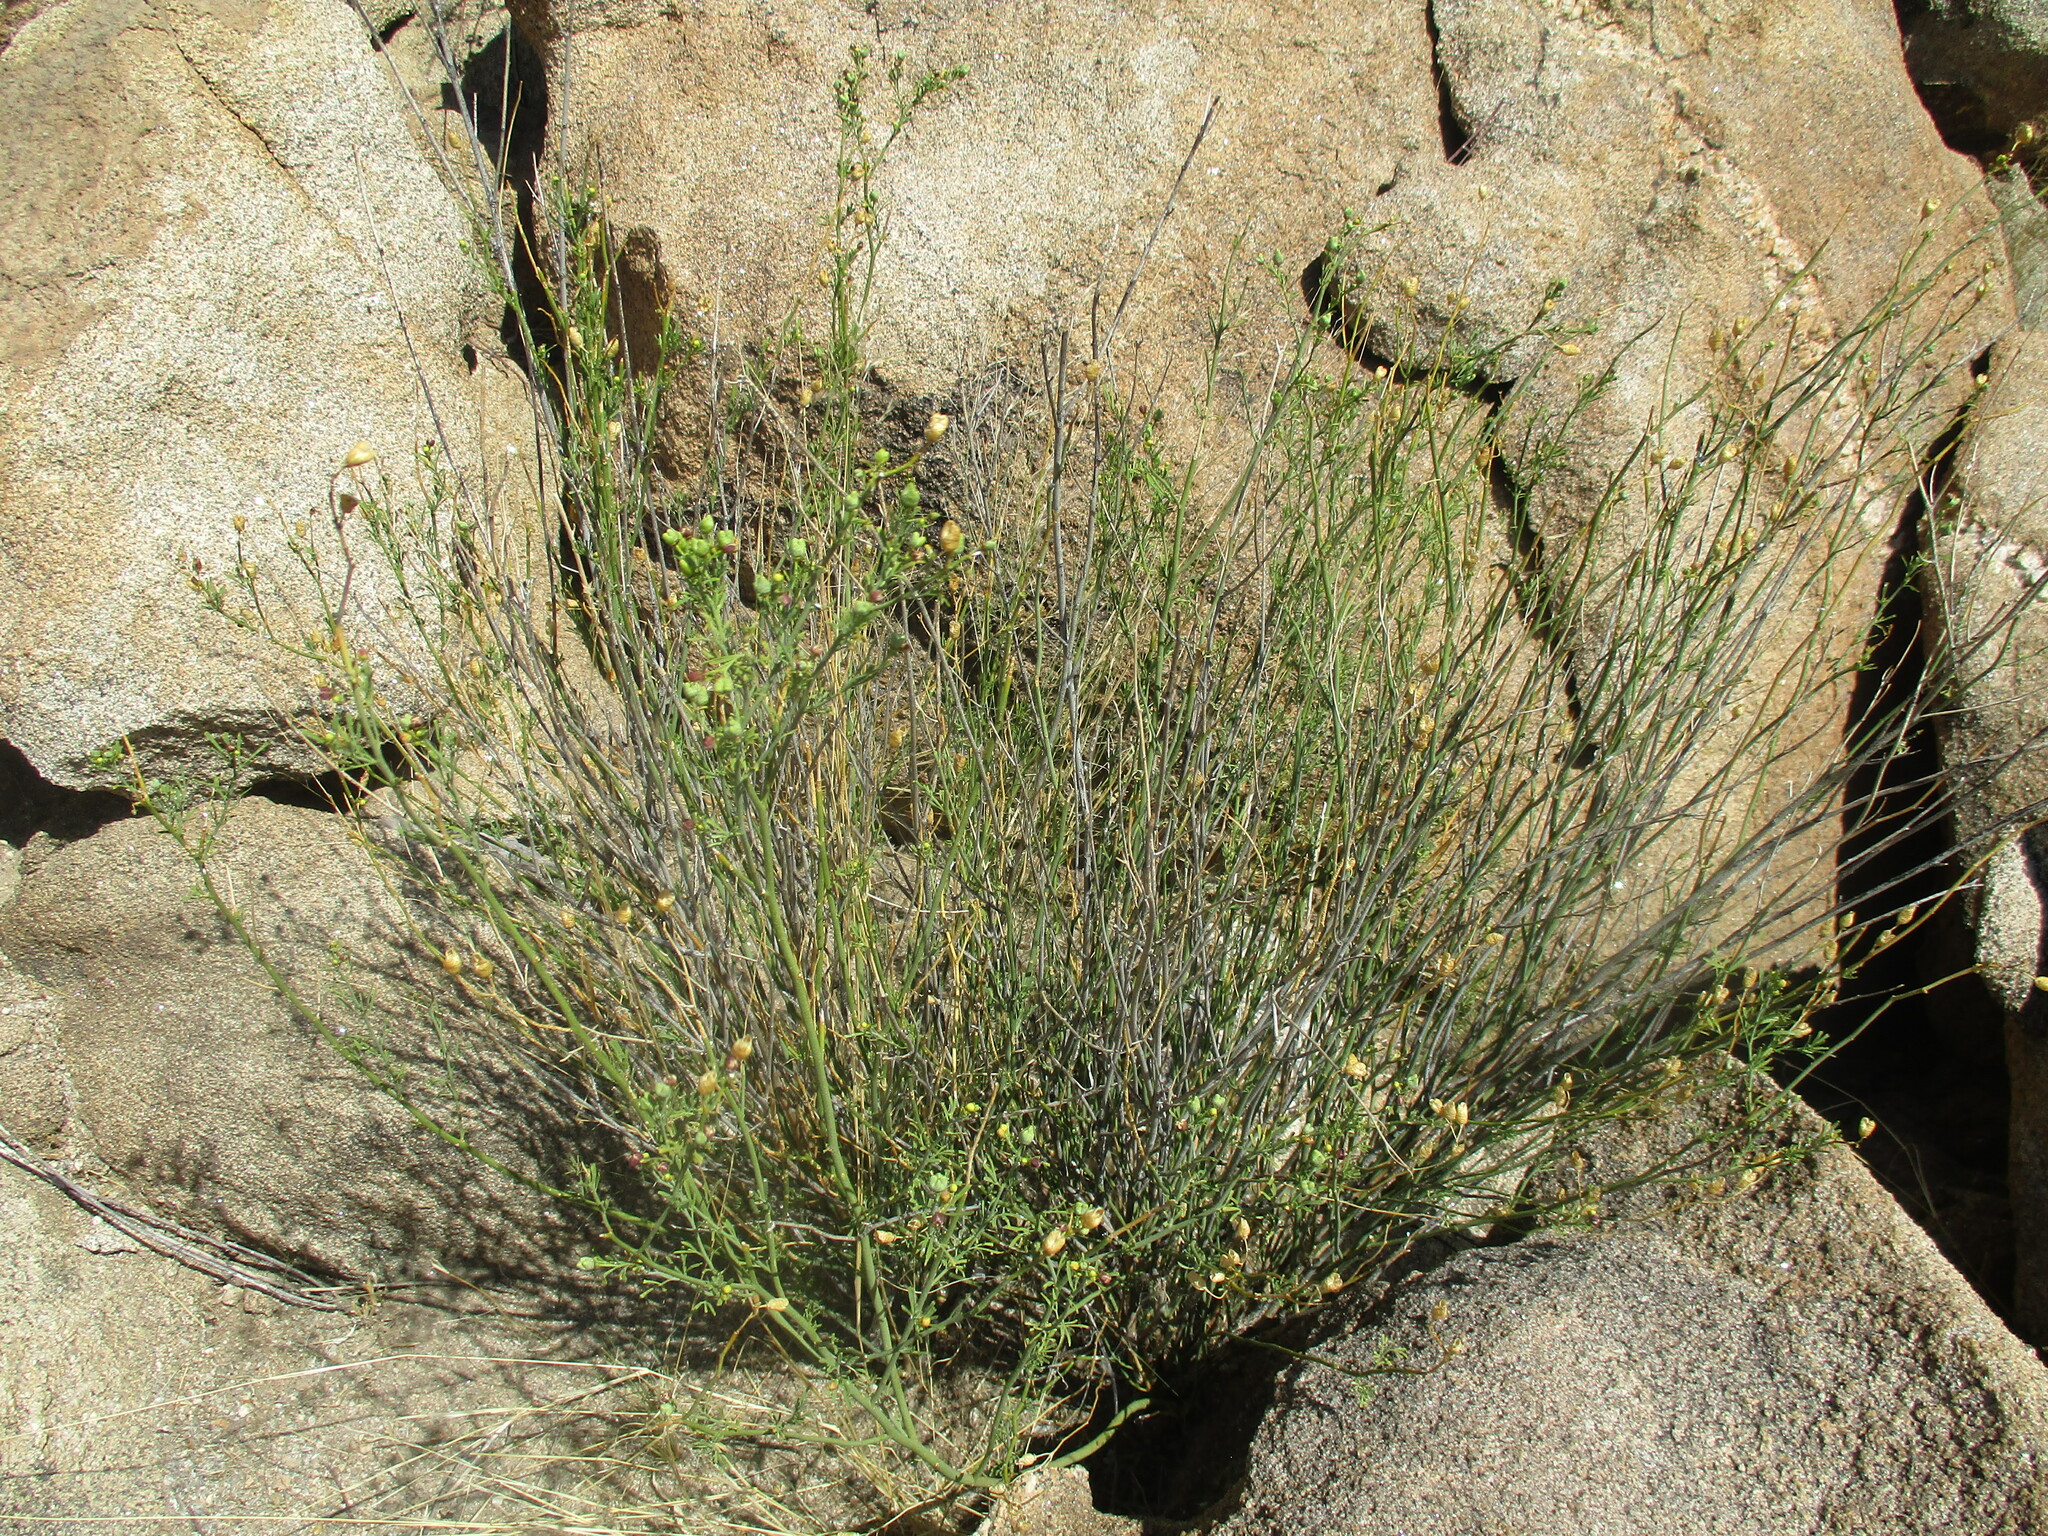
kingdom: Plantae
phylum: Tracheophyta
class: Magnoliopsida
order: Sapindales
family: Rutaceae
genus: Thamnosma
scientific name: Thamnosma africana
